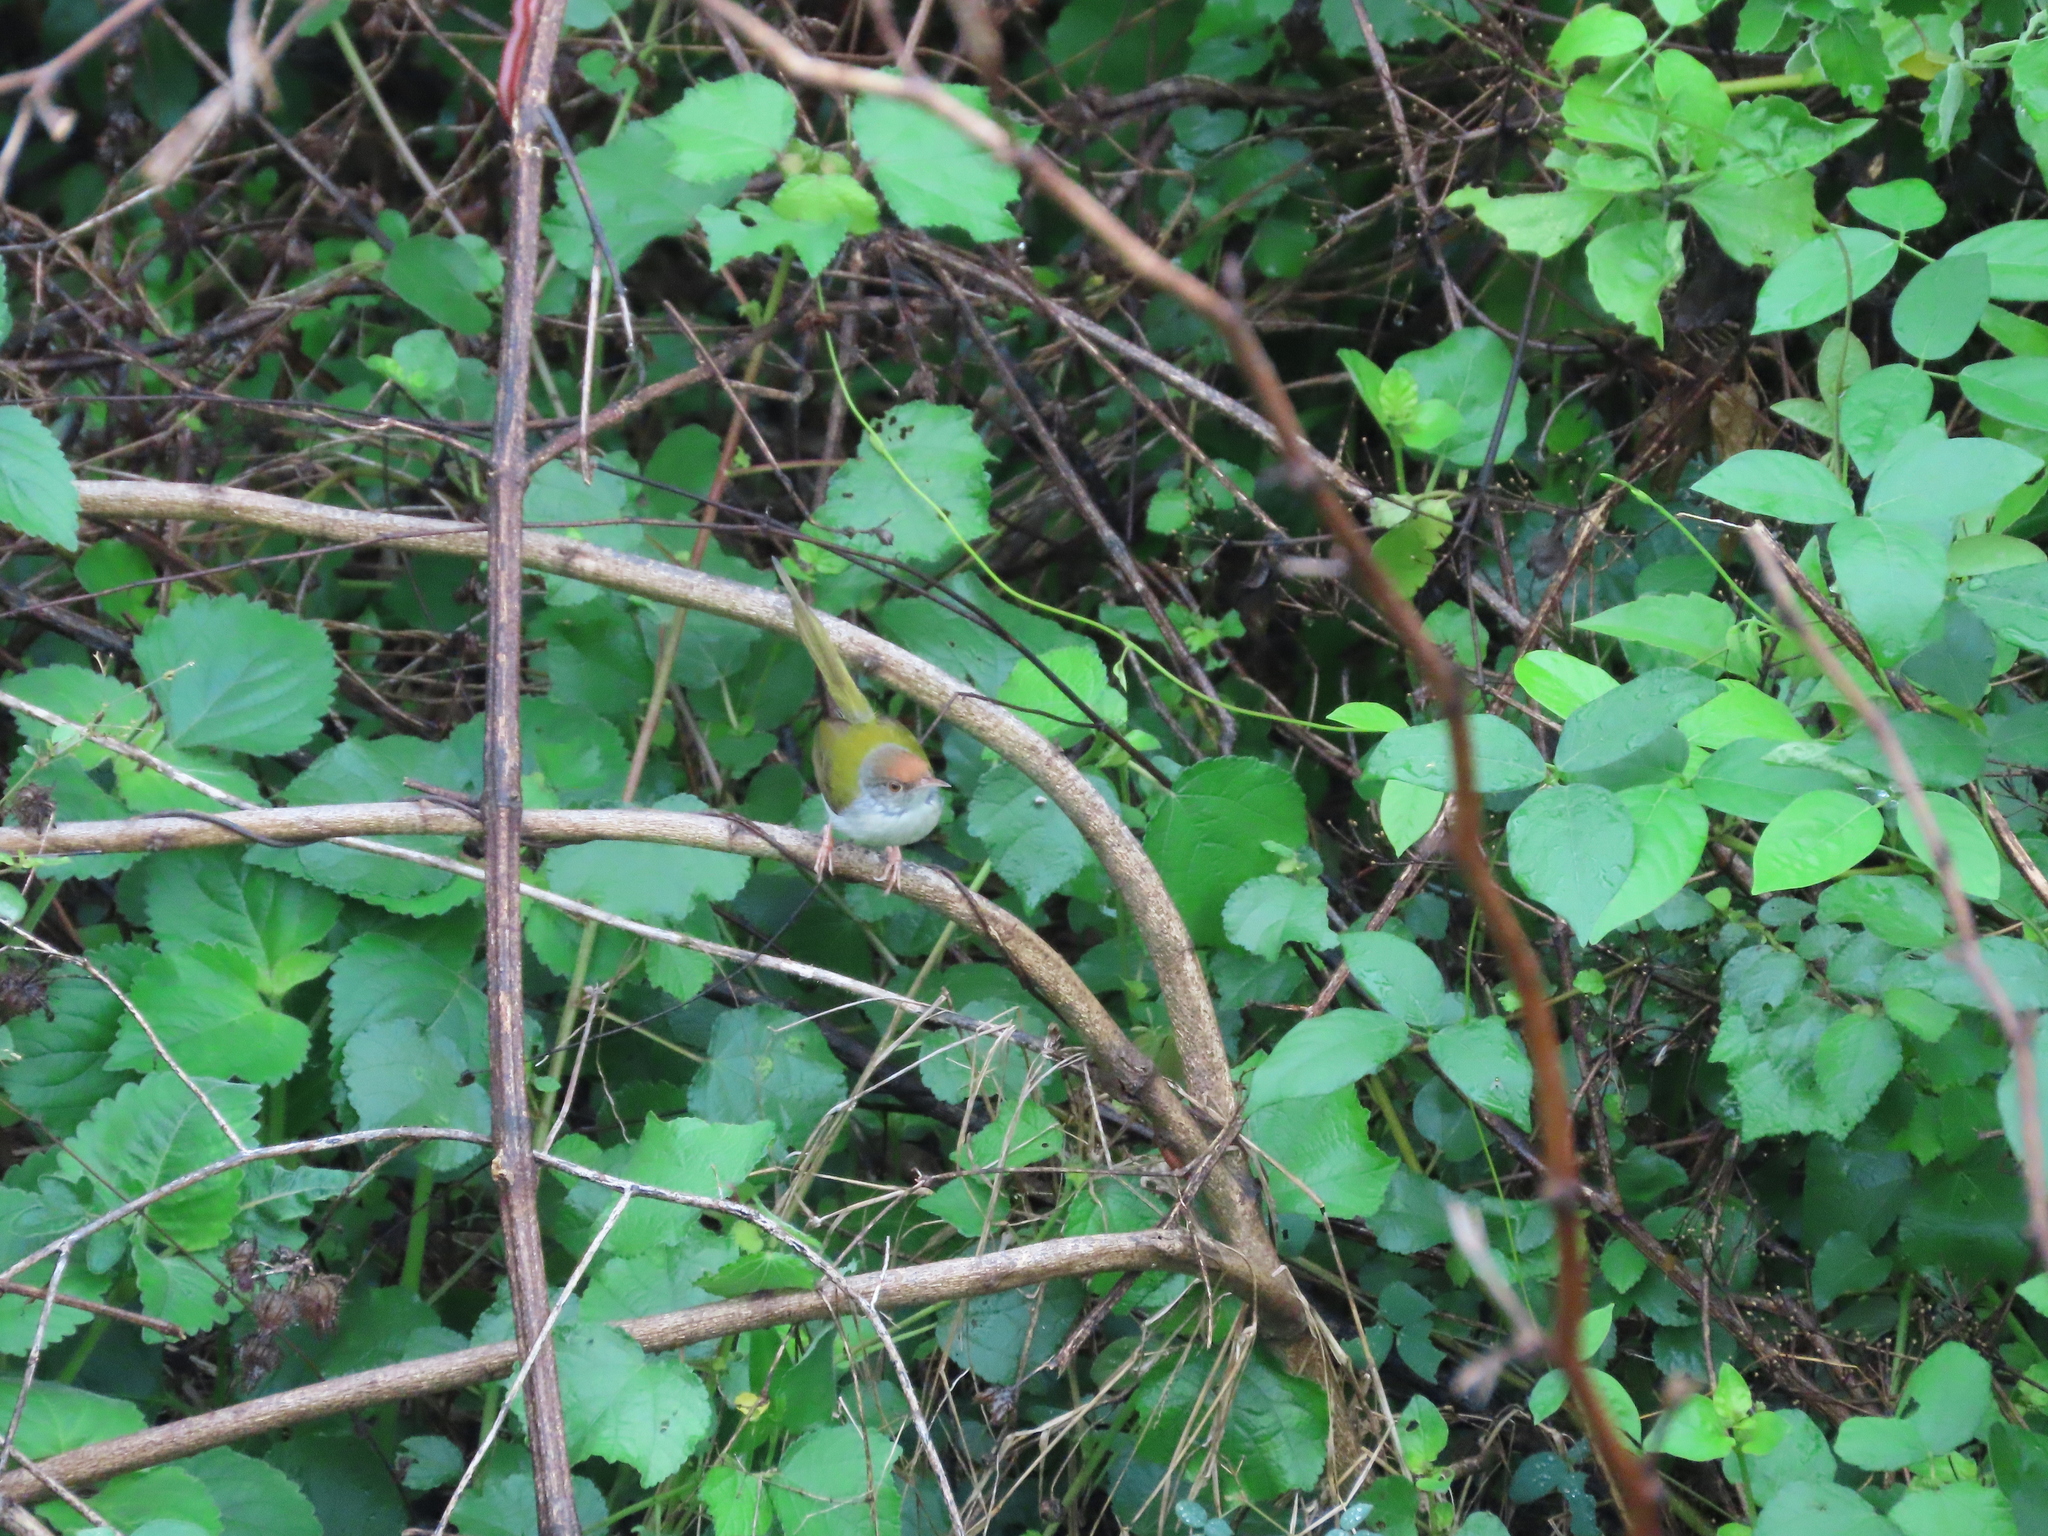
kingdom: Animalia
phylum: Chordata
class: Aves
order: Passeriformes
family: Cisticolidae
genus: Orthotomus
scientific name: Orthotomus sutorius
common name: Common tailorbird
